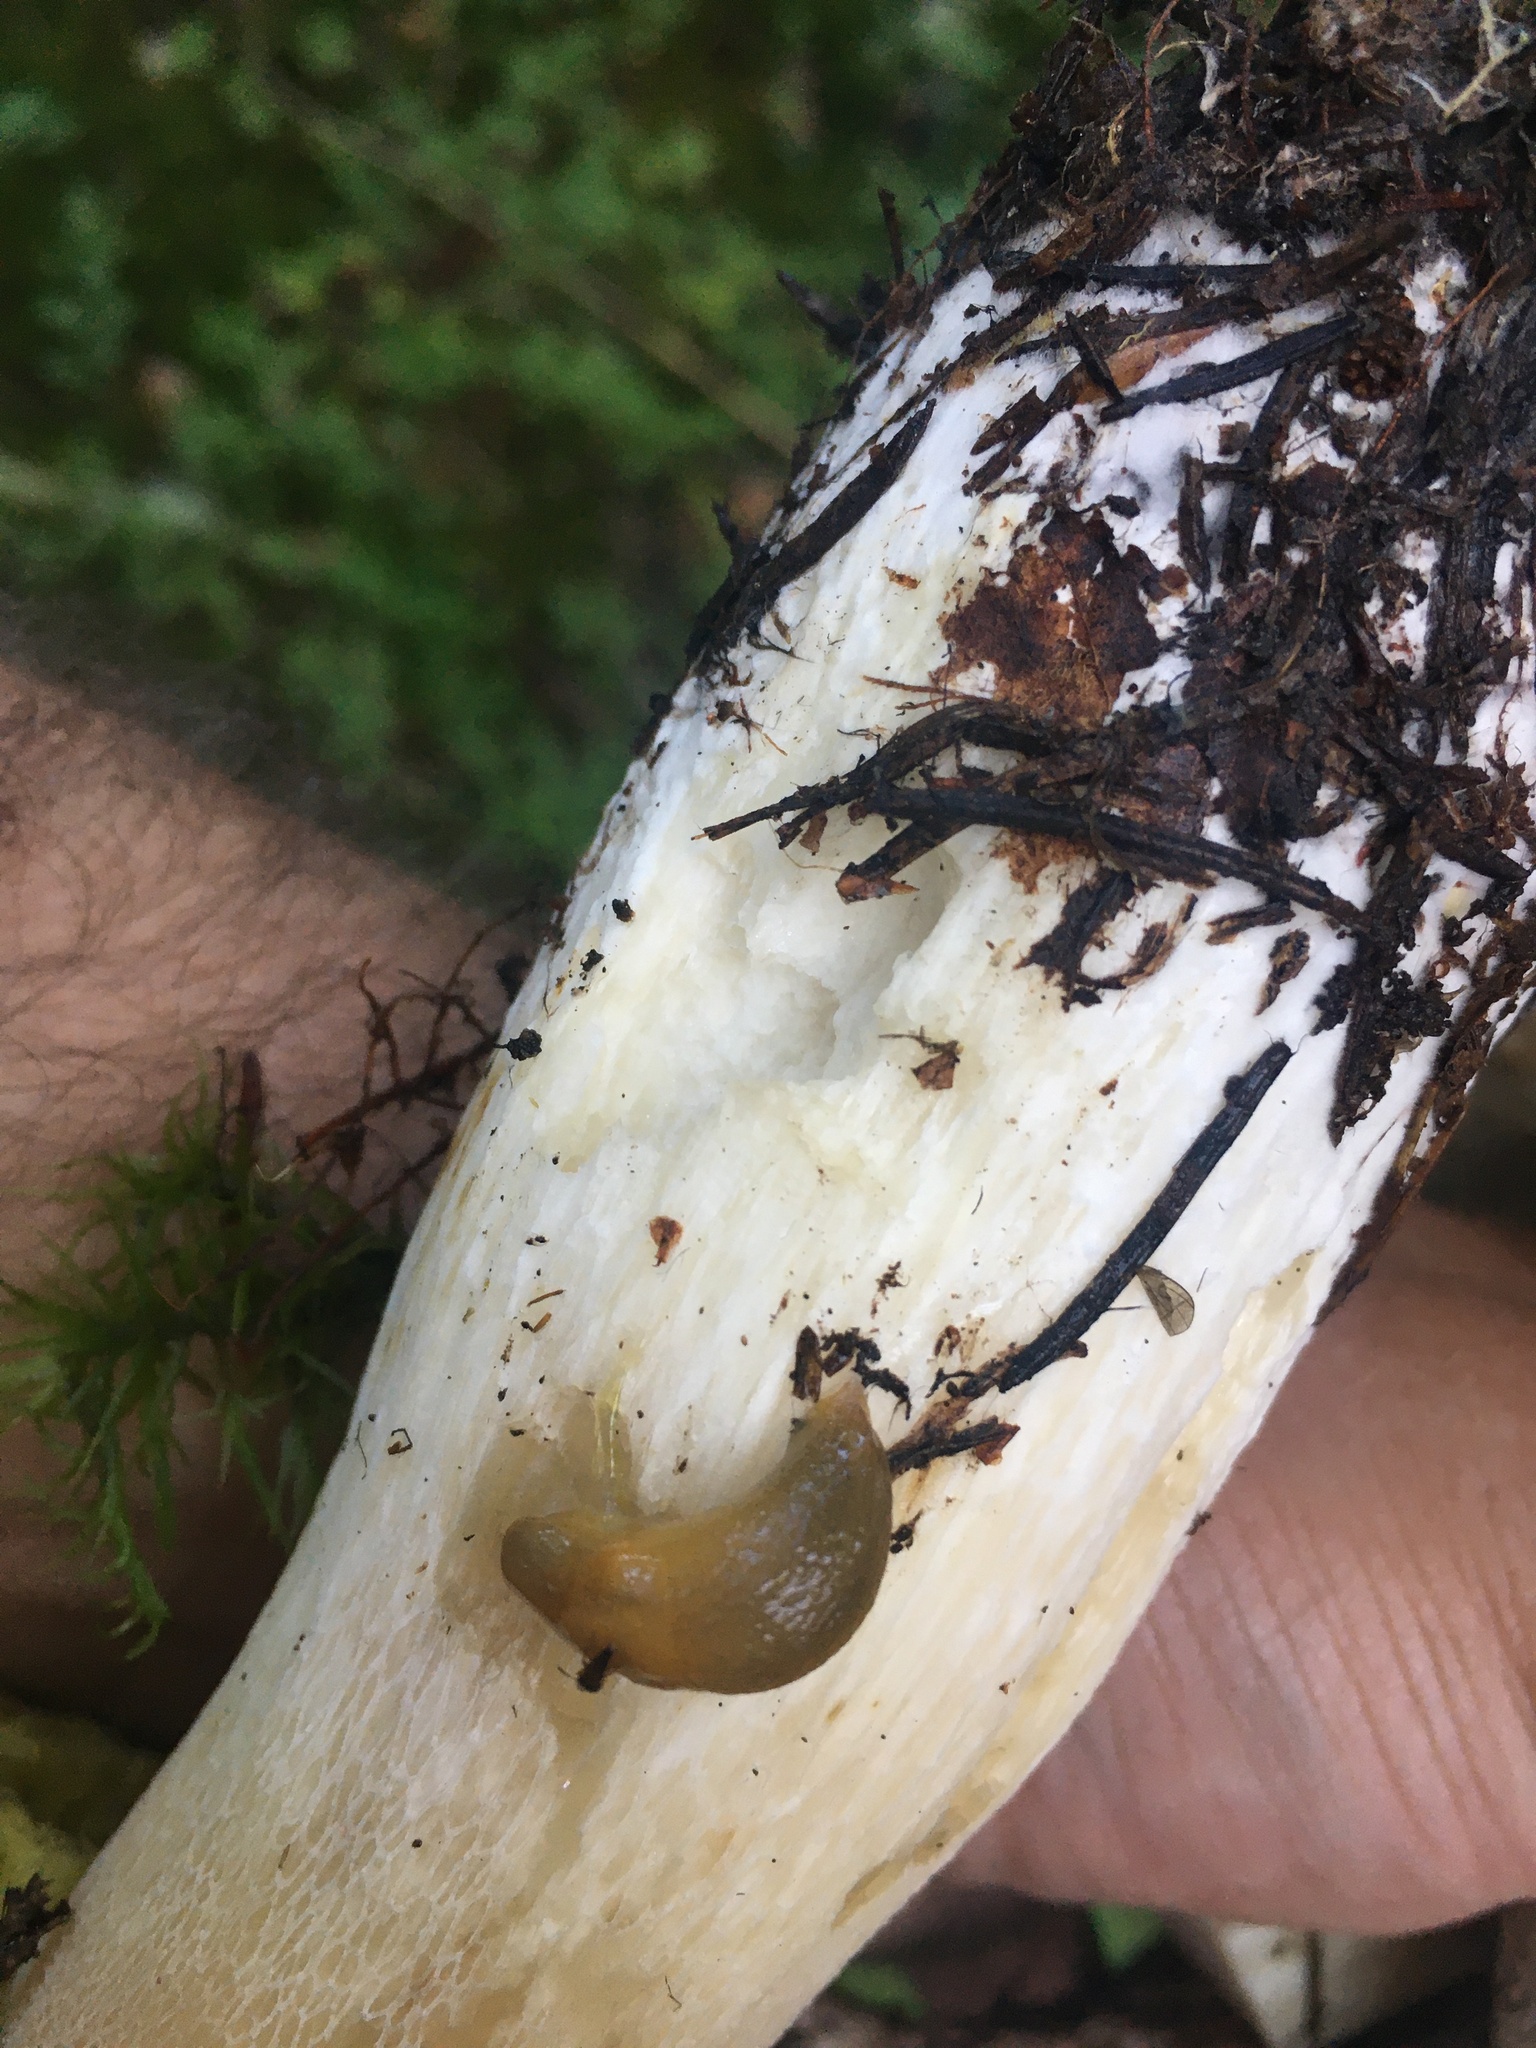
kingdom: Animalia
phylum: Mollusca
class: Gastropoda
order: Stylommatophora
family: Arionidae
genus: Arion
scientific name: Arion fuscus
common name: Northern dusky slug
